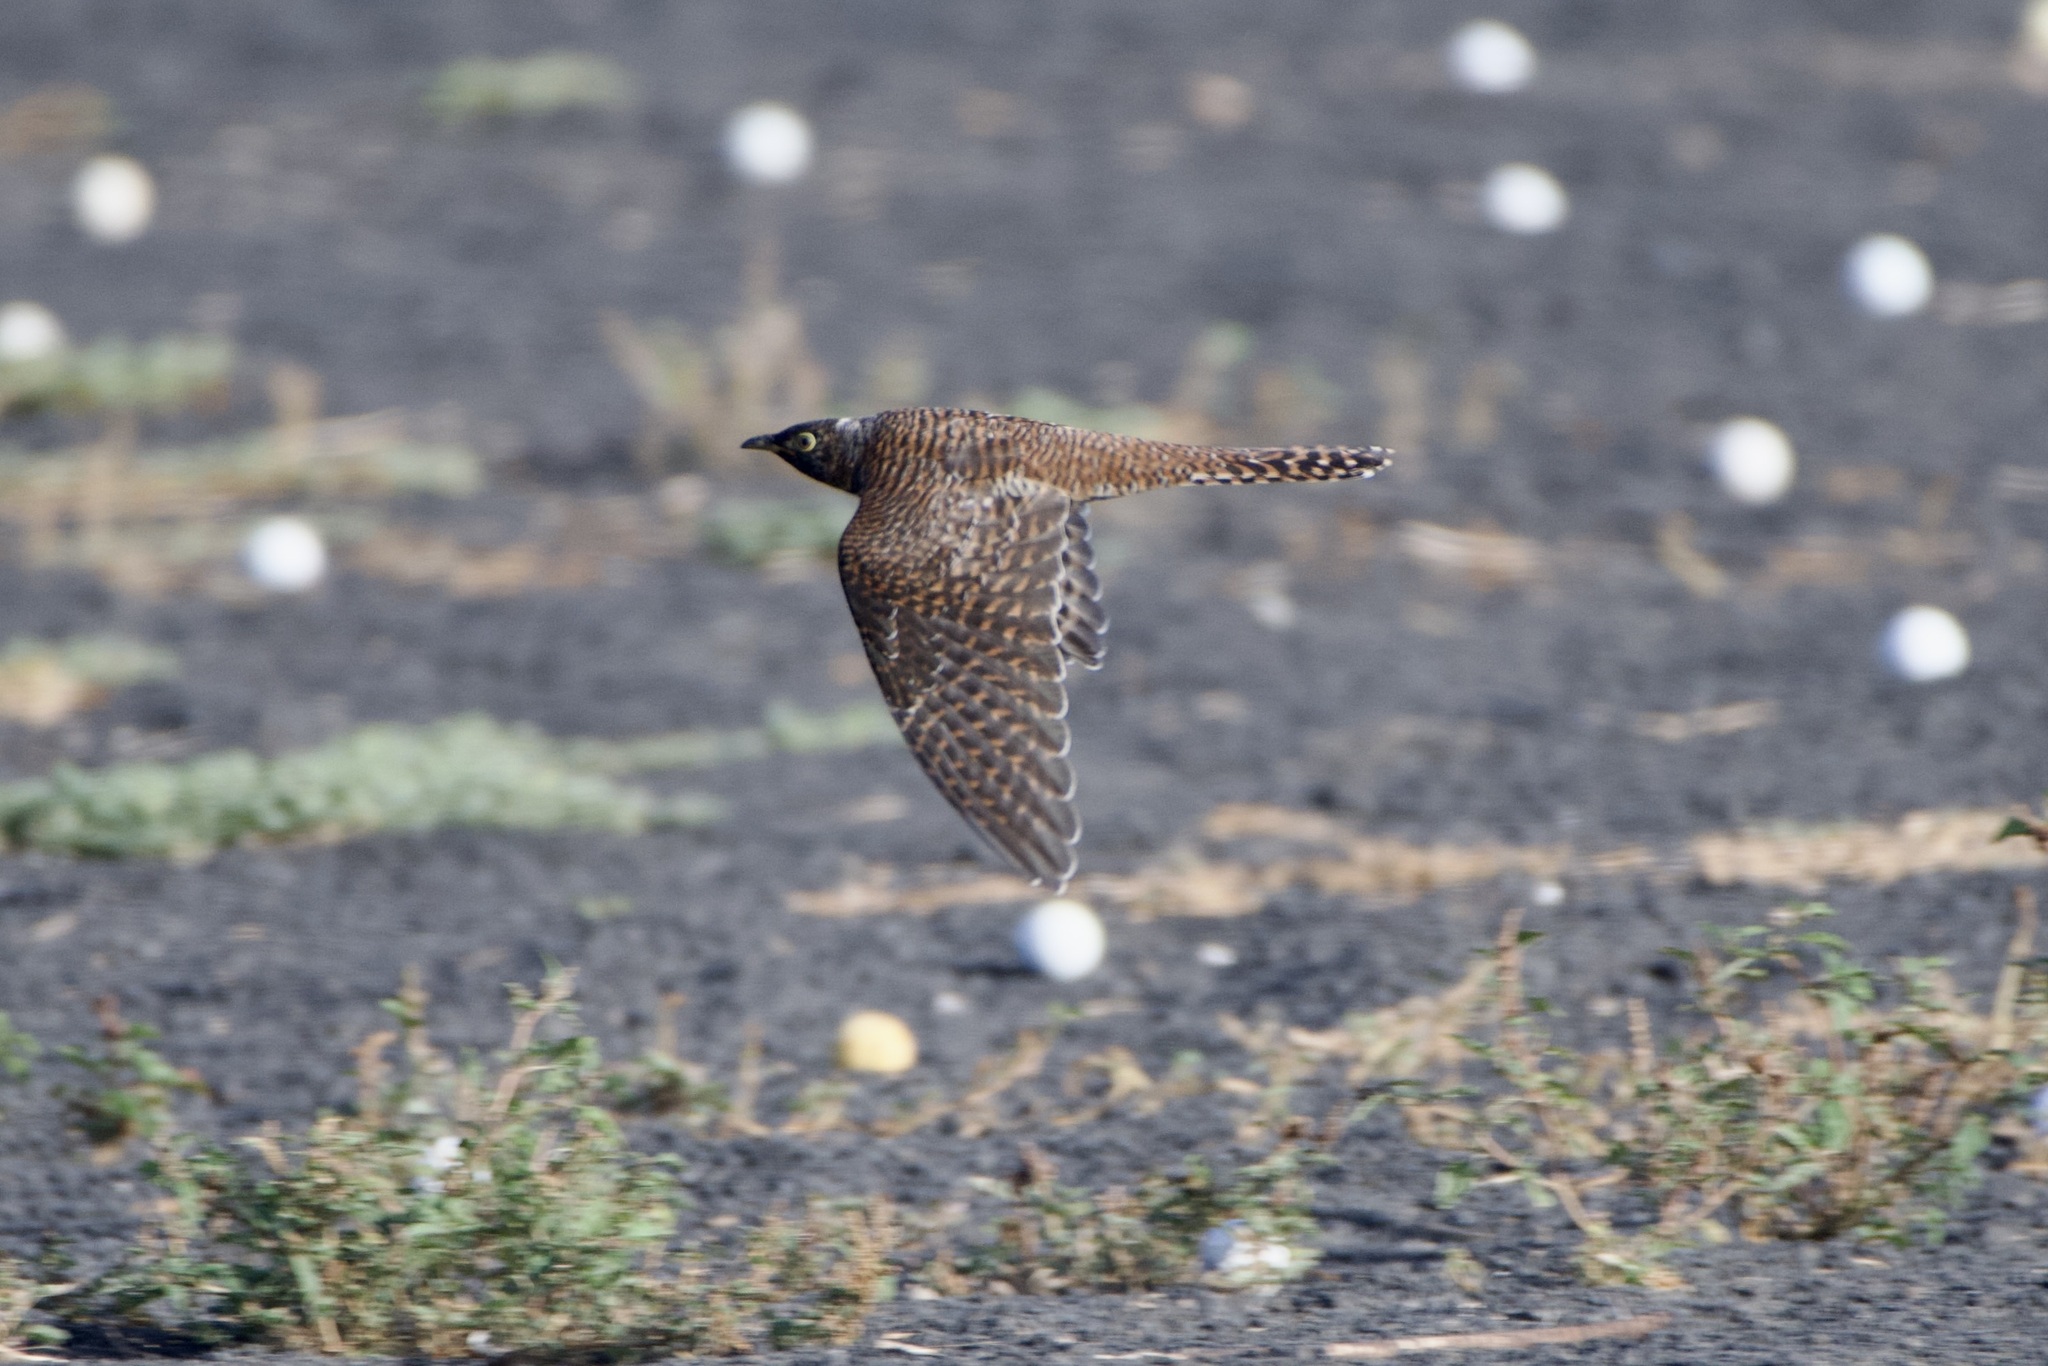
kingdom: Animalia
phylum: Chordata
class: Aves
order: Cuculiformes
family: Cuculidae
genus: Cuculus
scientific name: Cuculus canorus
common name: Common cuckoo
